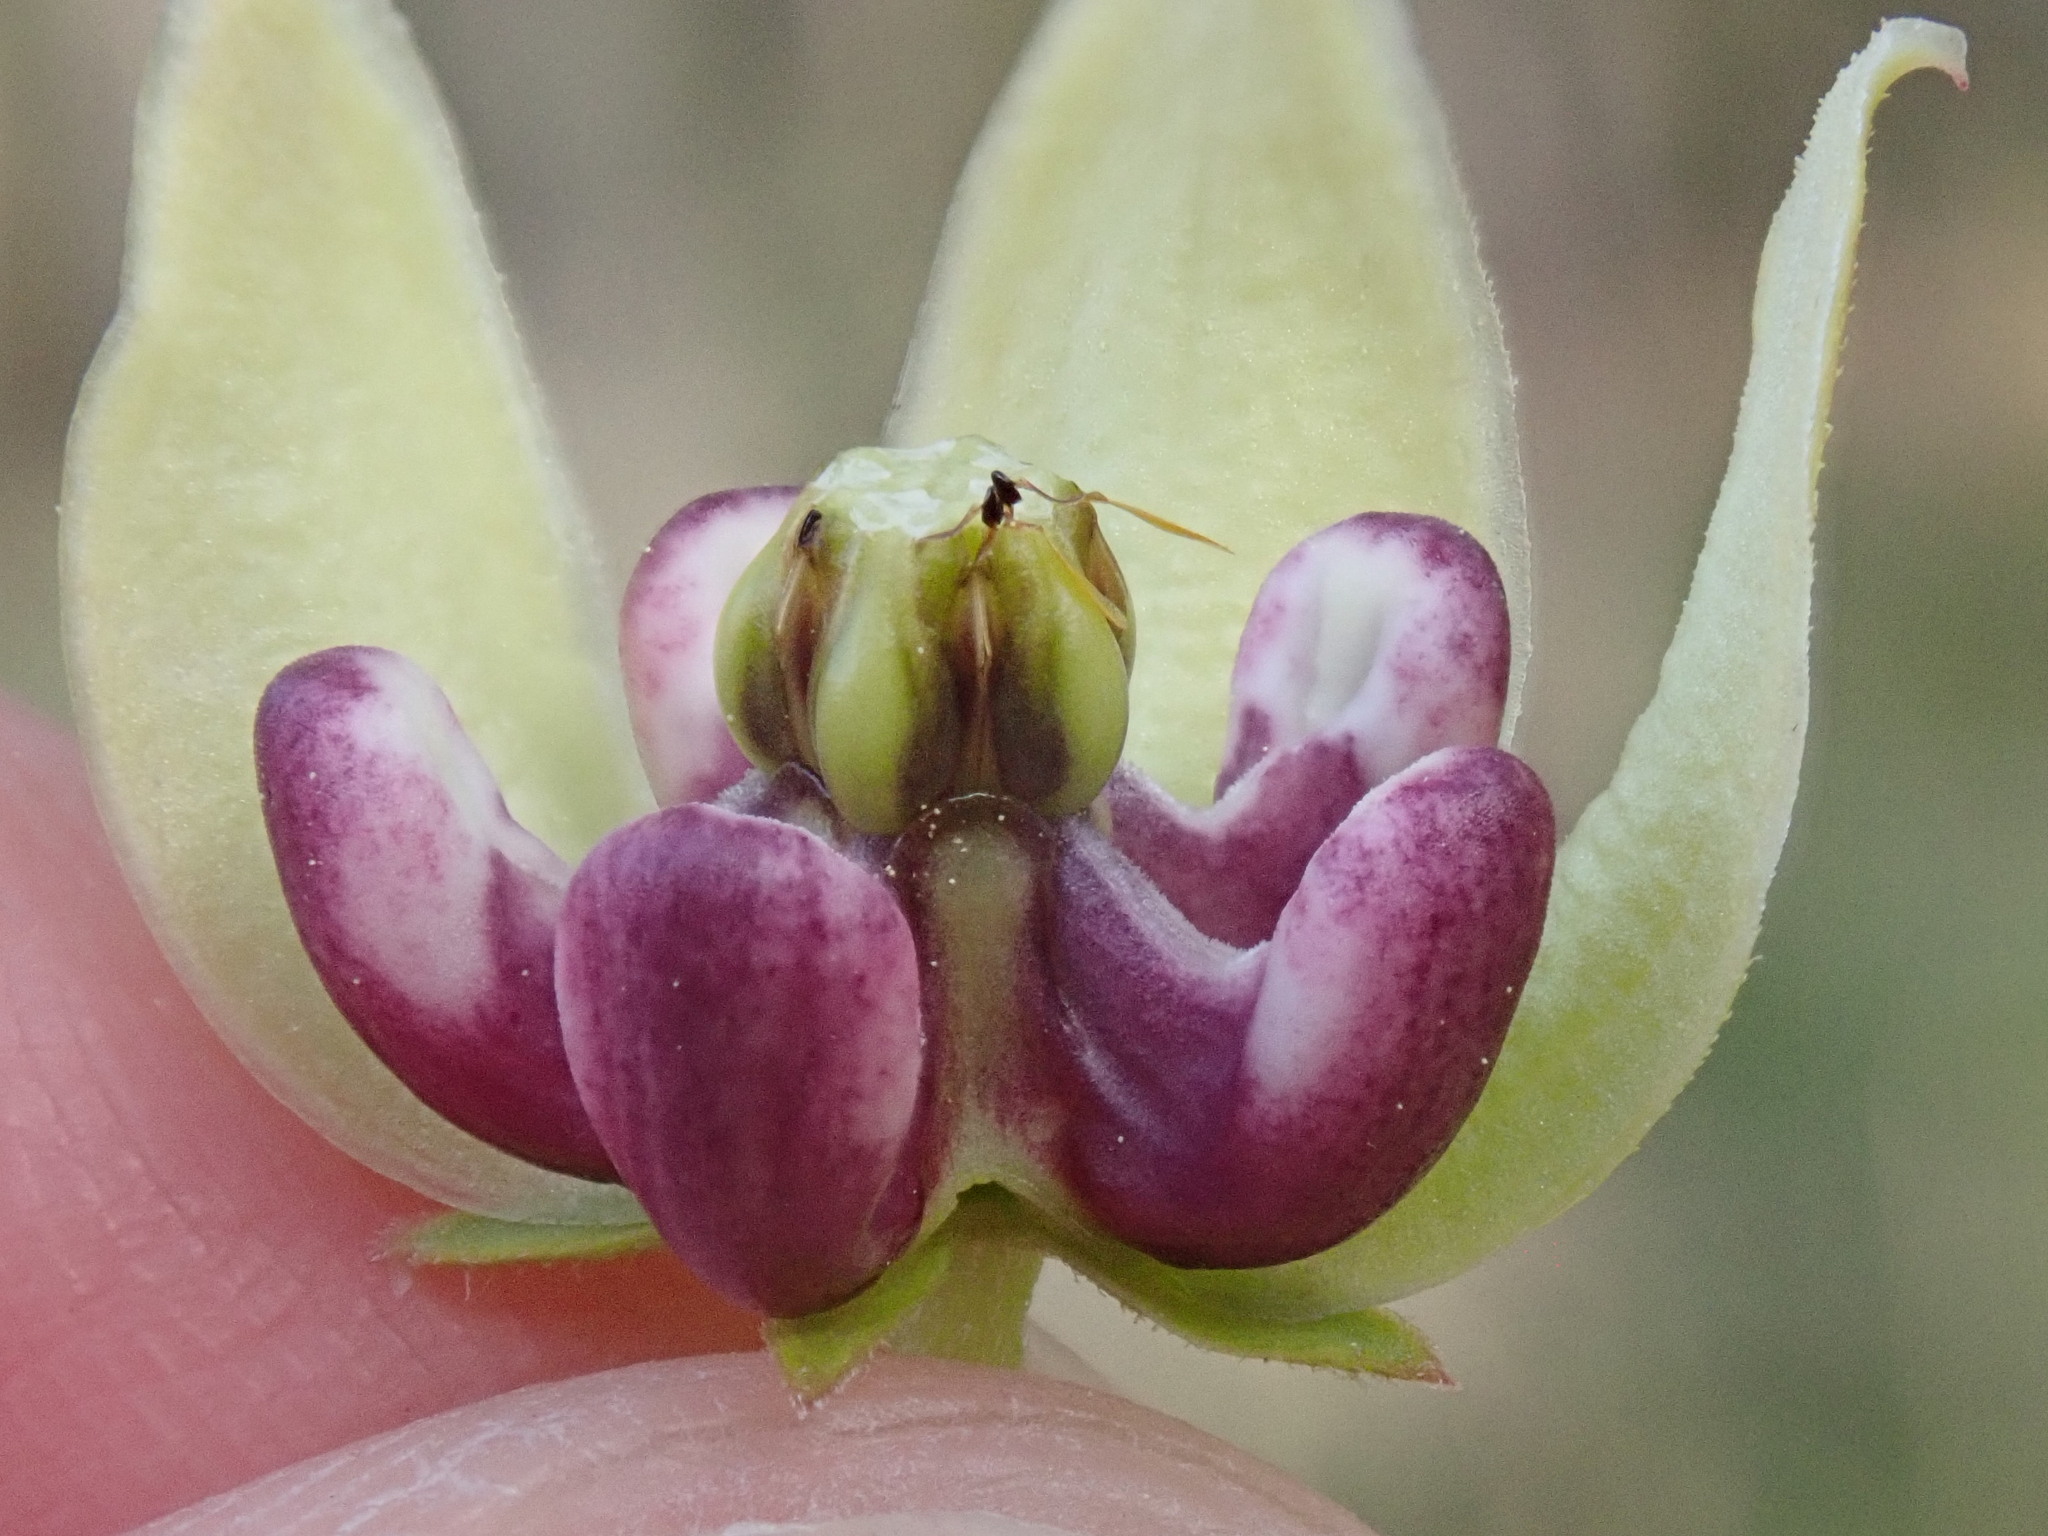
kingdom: Plantae
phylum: Tracheophyta
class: Magnoliopsida
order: Gentianales
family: Apocynaceae
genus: Asclepias
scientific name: Asclepias viridis
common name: Antelope-horns
